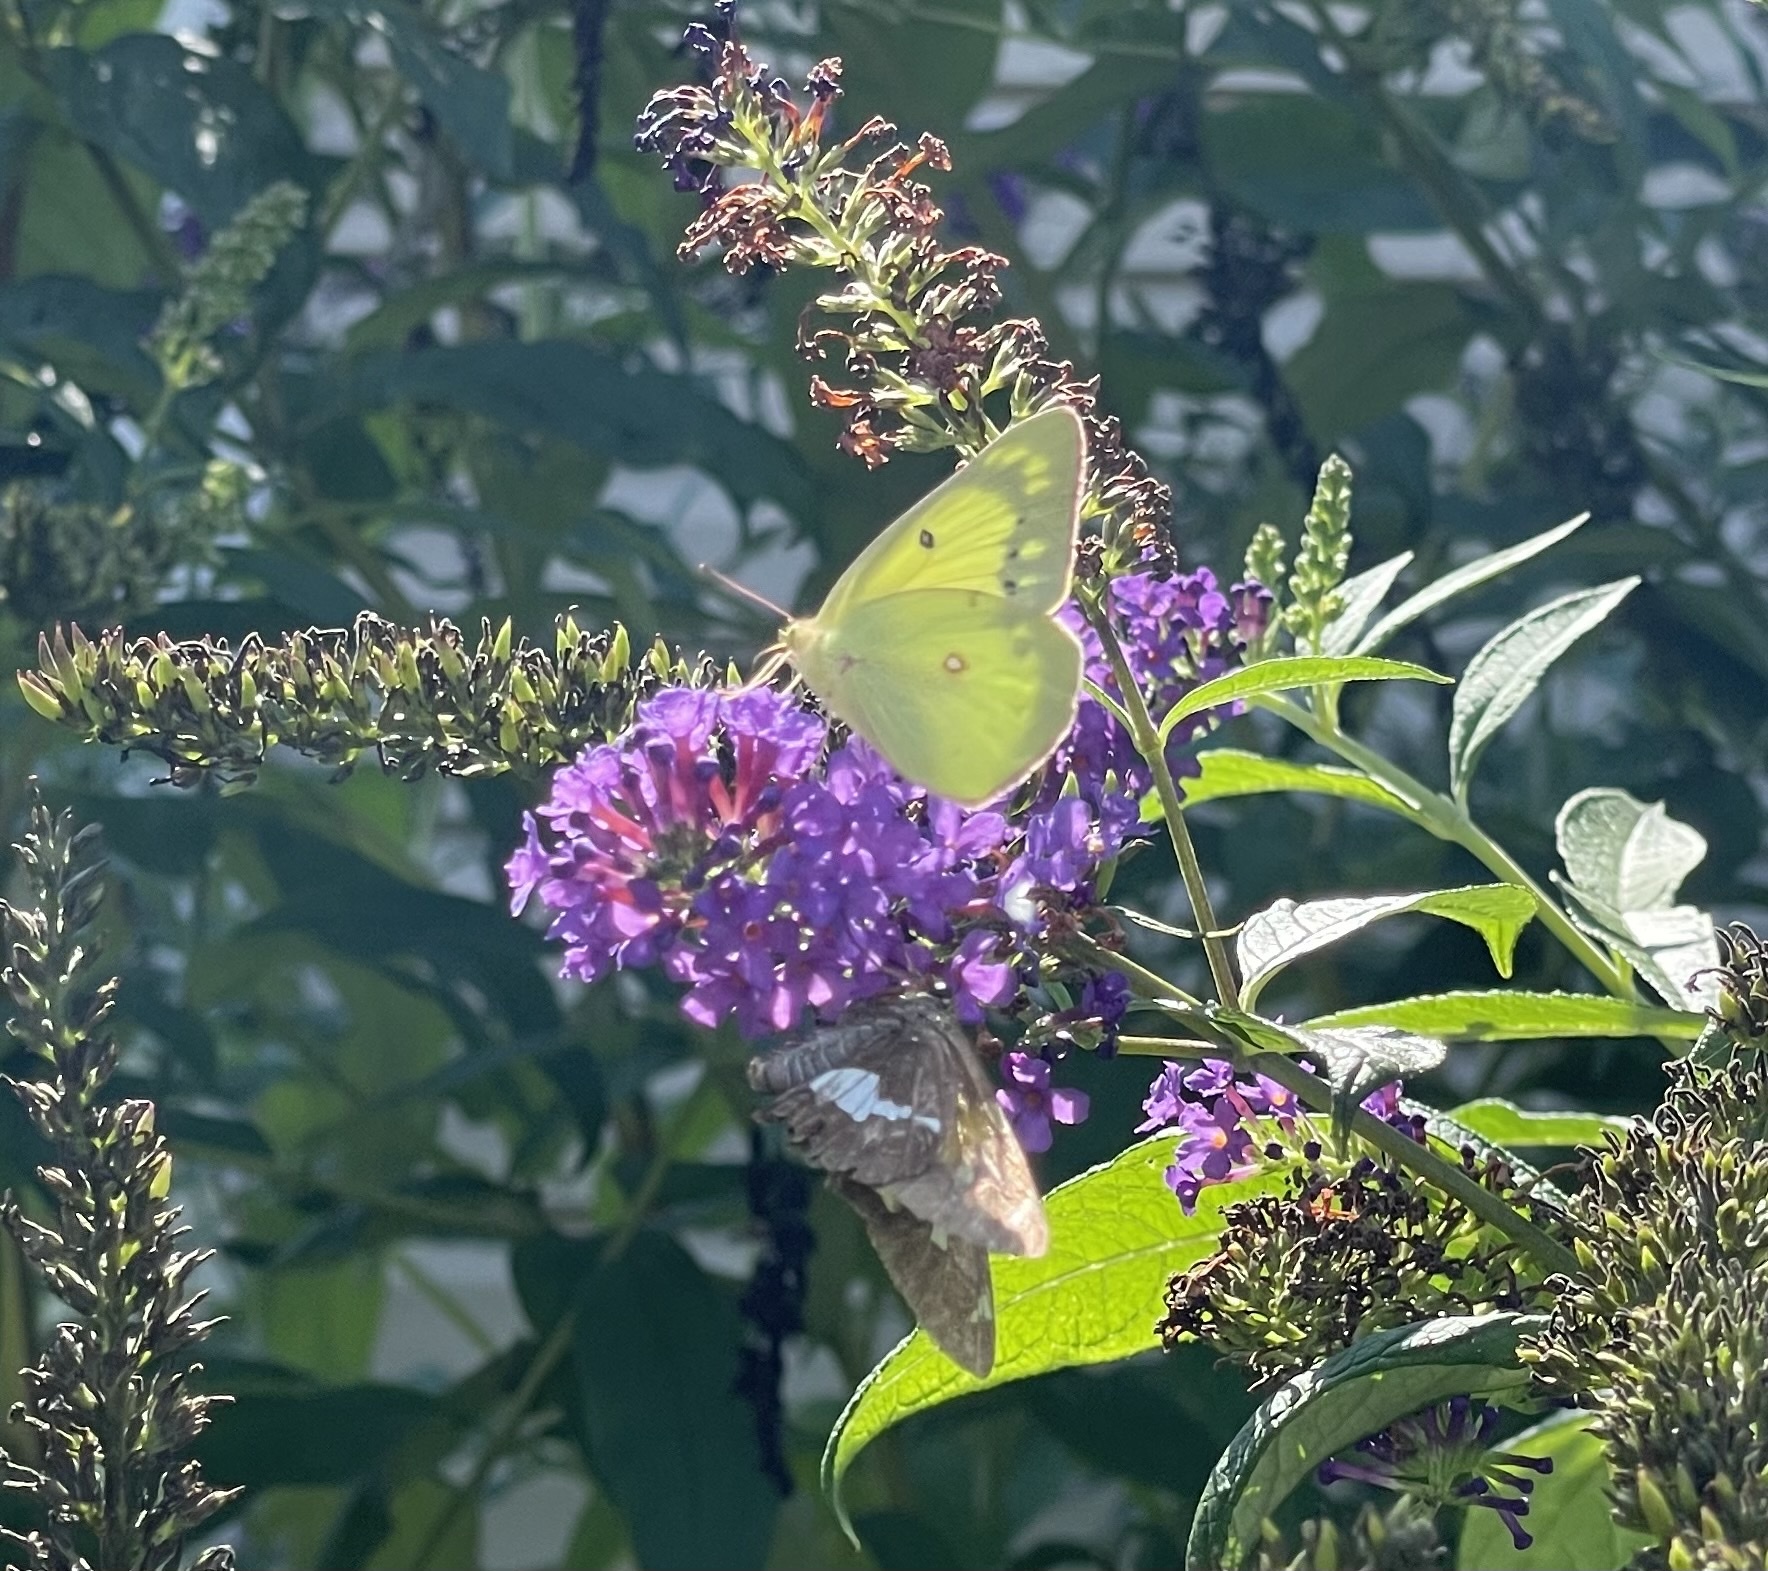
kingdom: Animalia
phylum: Arthropoda
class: Insecta
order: Lepidoptera
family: Pieridae
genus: Colias
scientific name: Colias philodice
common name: Clouded sulphur
